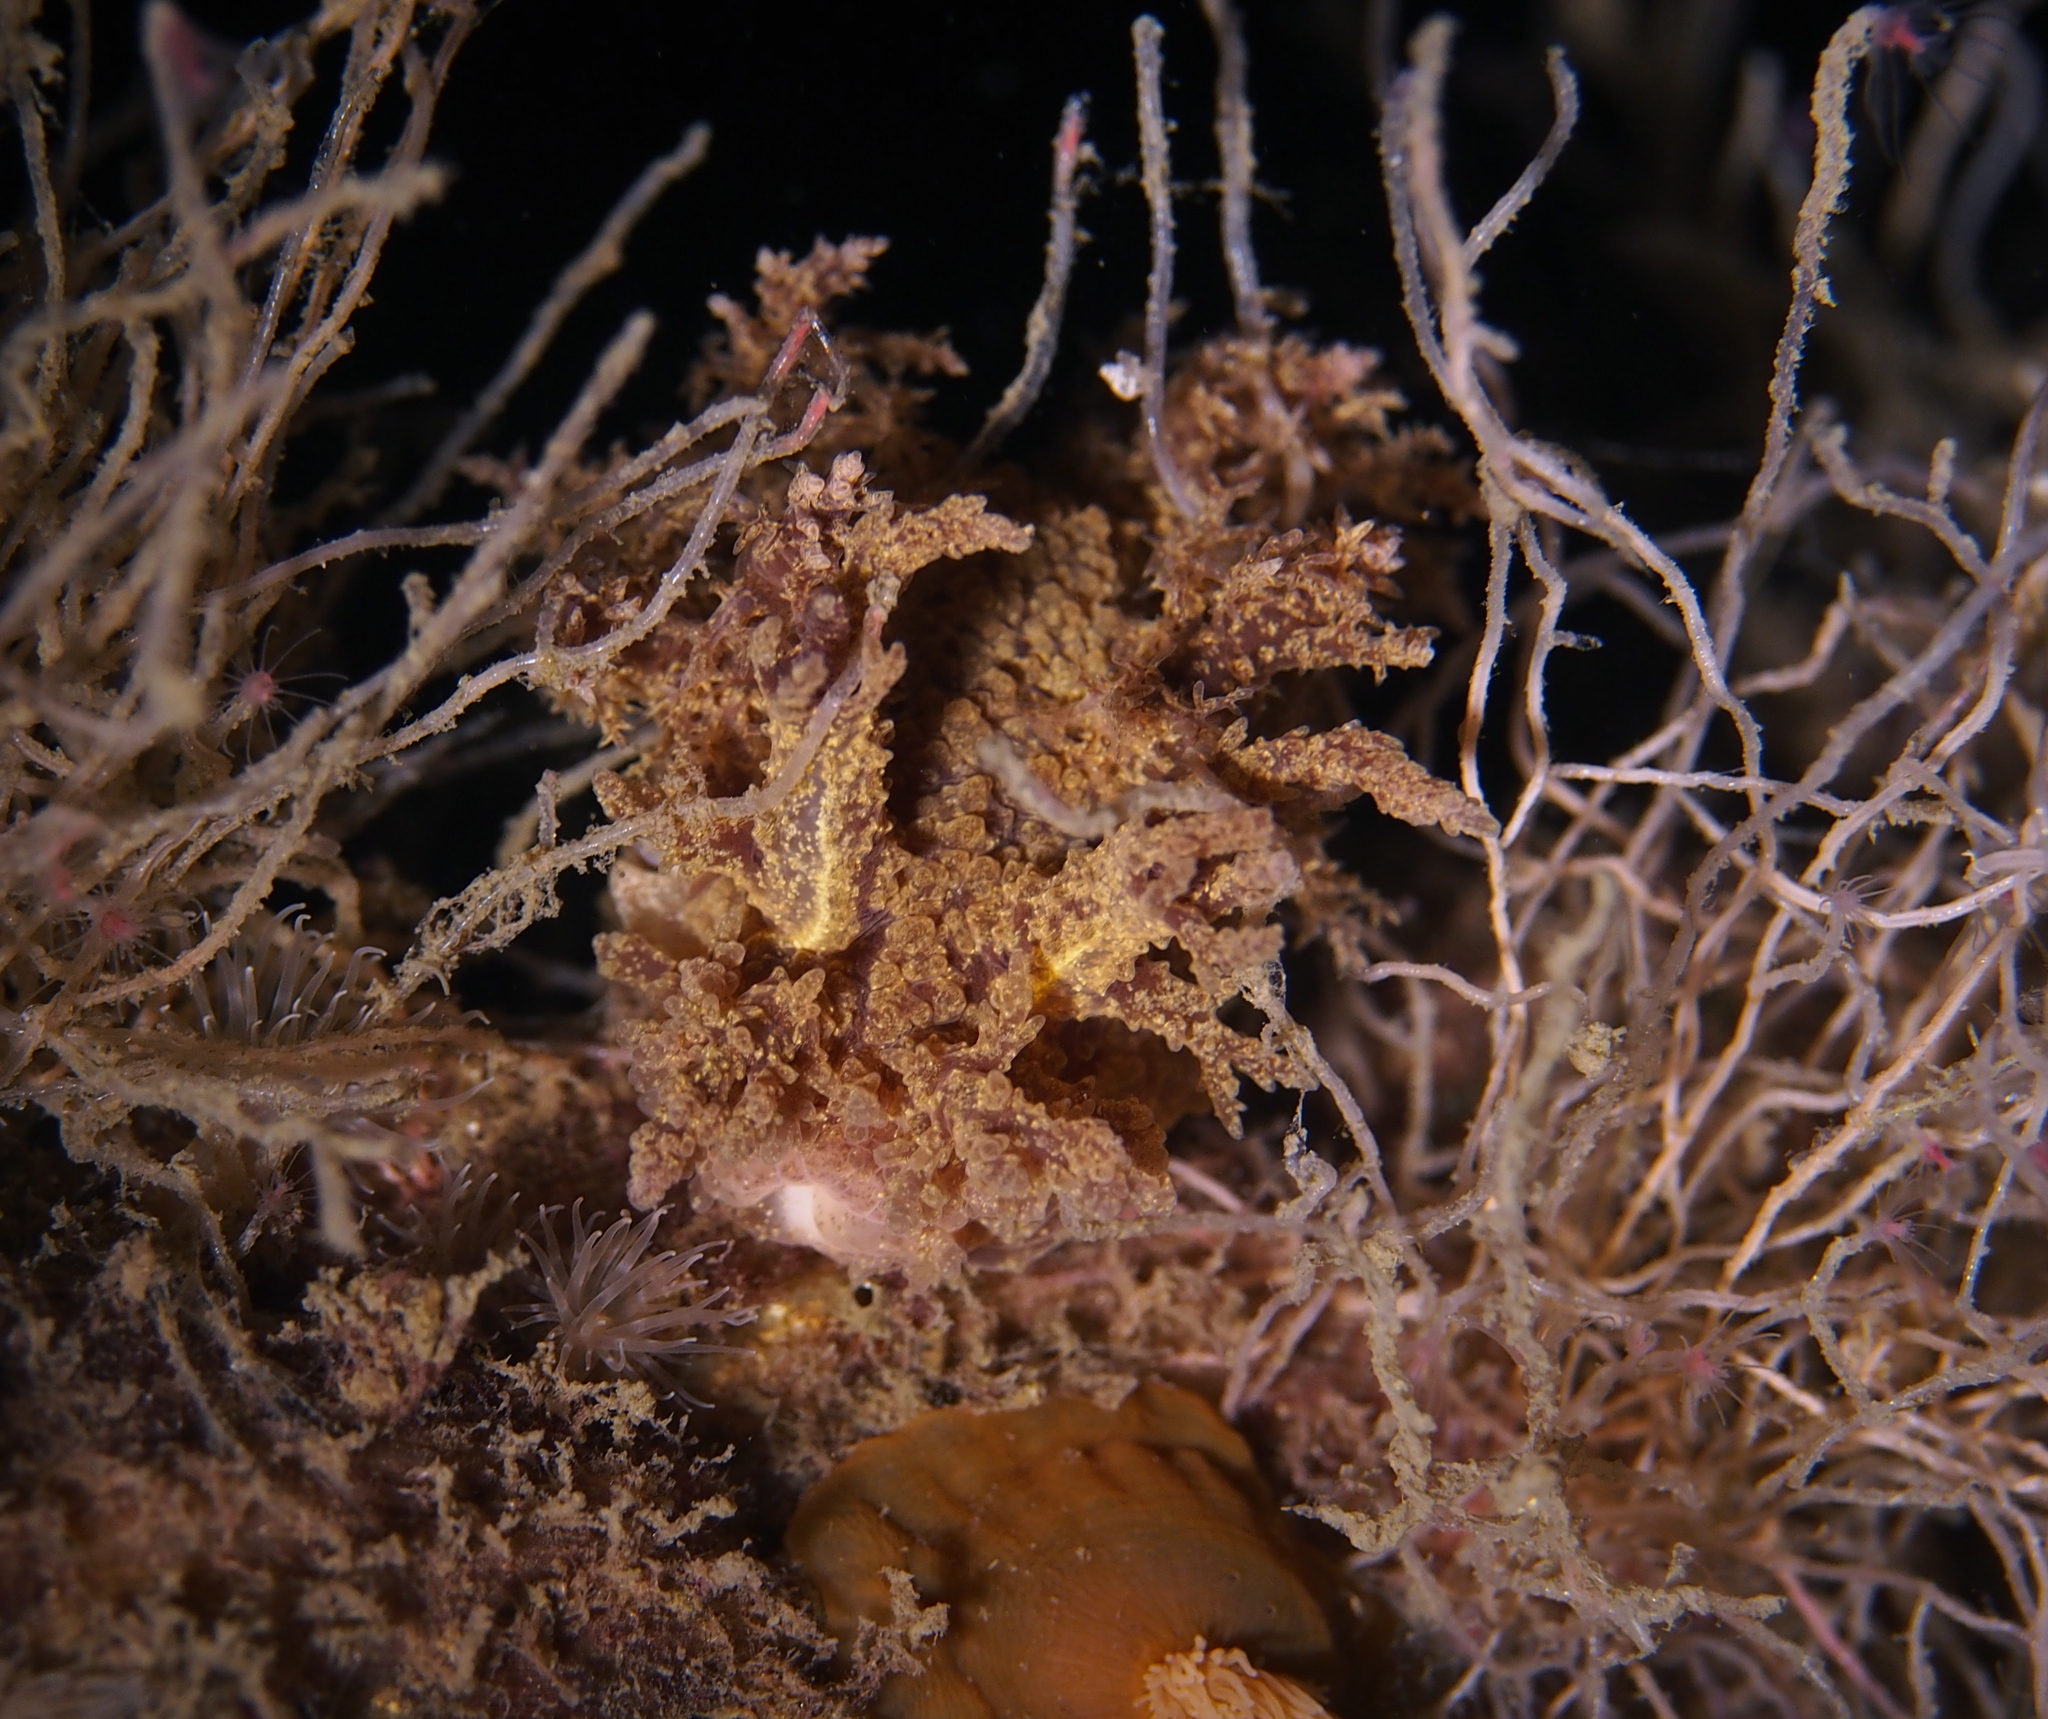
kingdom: Animalia
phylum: Mollusca
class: Gastropoda
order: Nudibranchia
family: Dendronotidae
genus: Dendronotus
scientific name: Dendronotus europaeus
